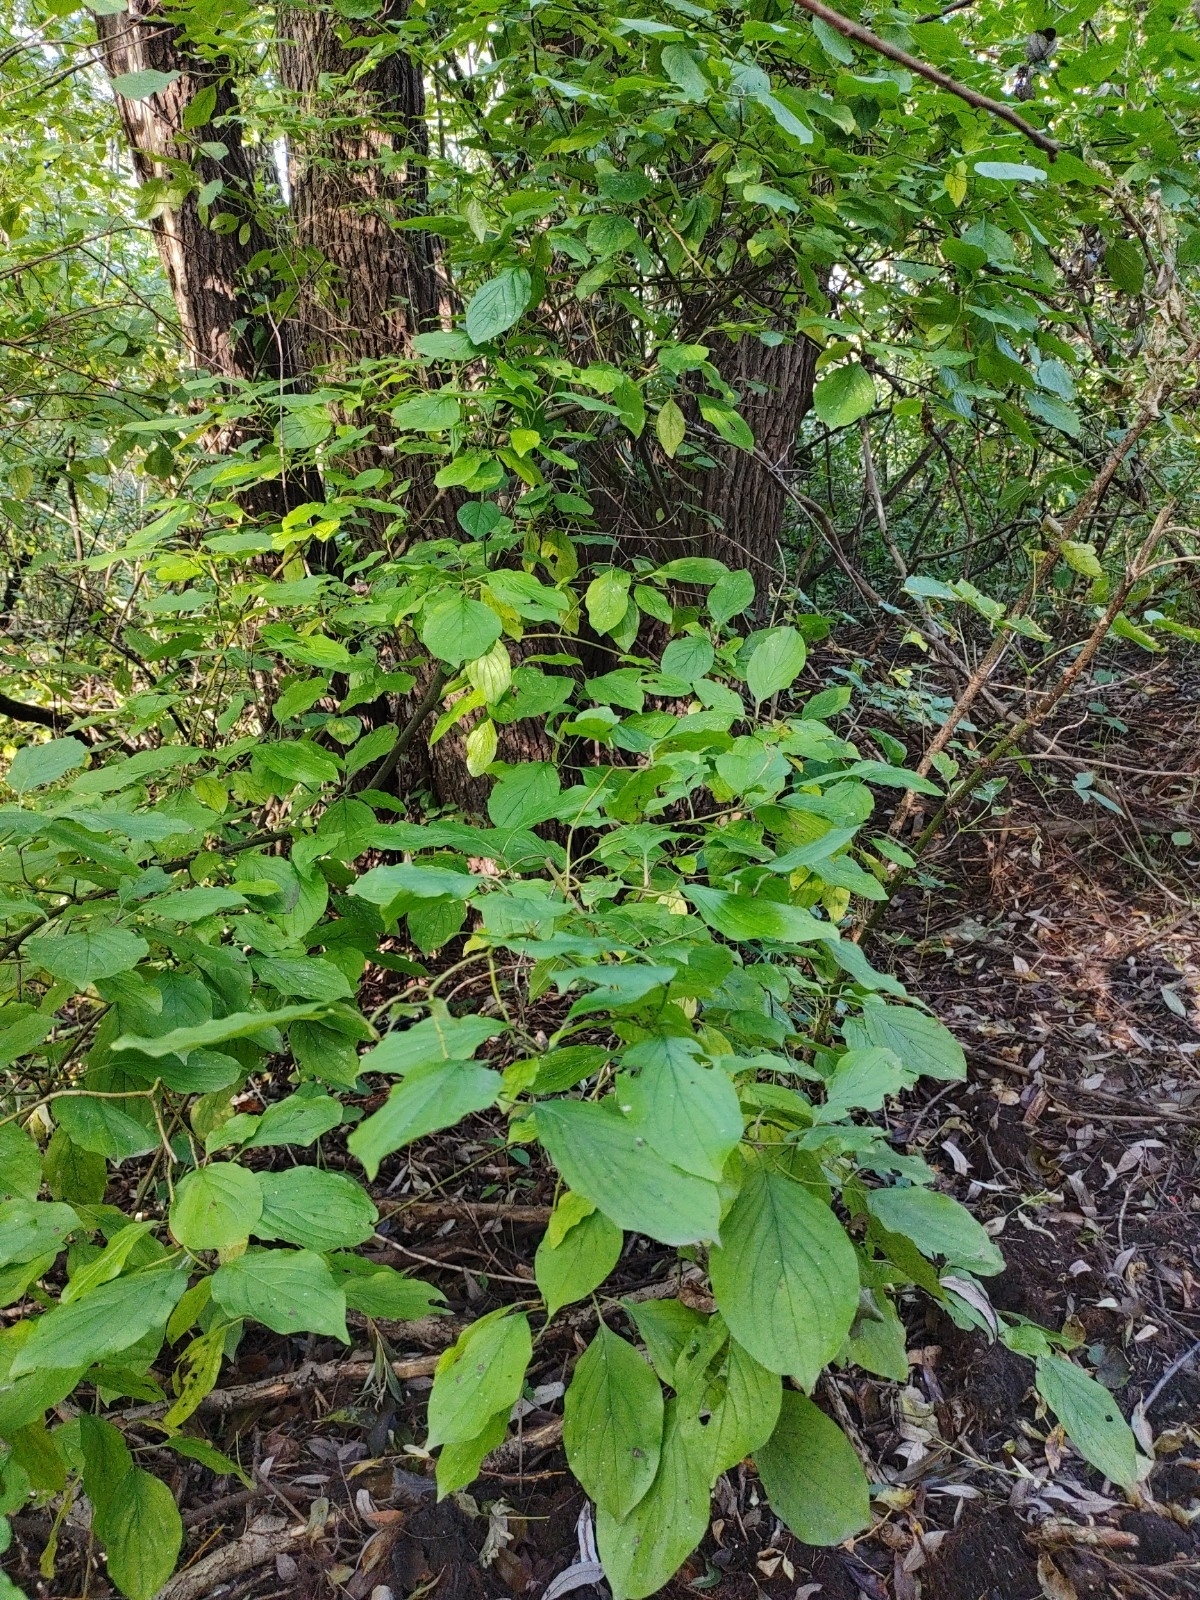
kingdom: Plantae
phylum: Tracheophyta
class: Magnoliopsida
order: Cornales
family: Cornaceae
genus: Cornus
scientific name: Cornus sanguinea
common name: Dogwood
